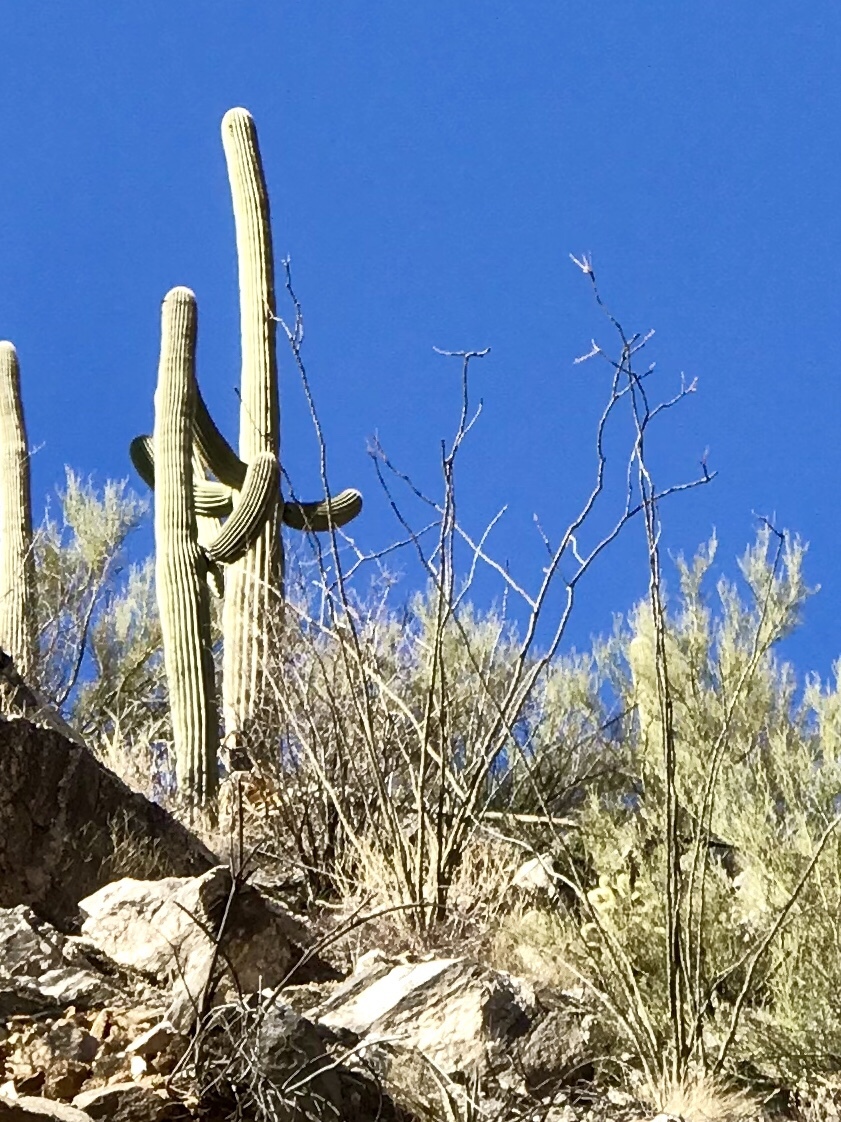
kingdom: Plantae
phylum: Tracheophyta
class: Magnoliopsida
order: Ericales
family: Fouquieriaceae
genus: Fouquieria
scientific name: Fouquieria splendens
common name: Vine-cactus
